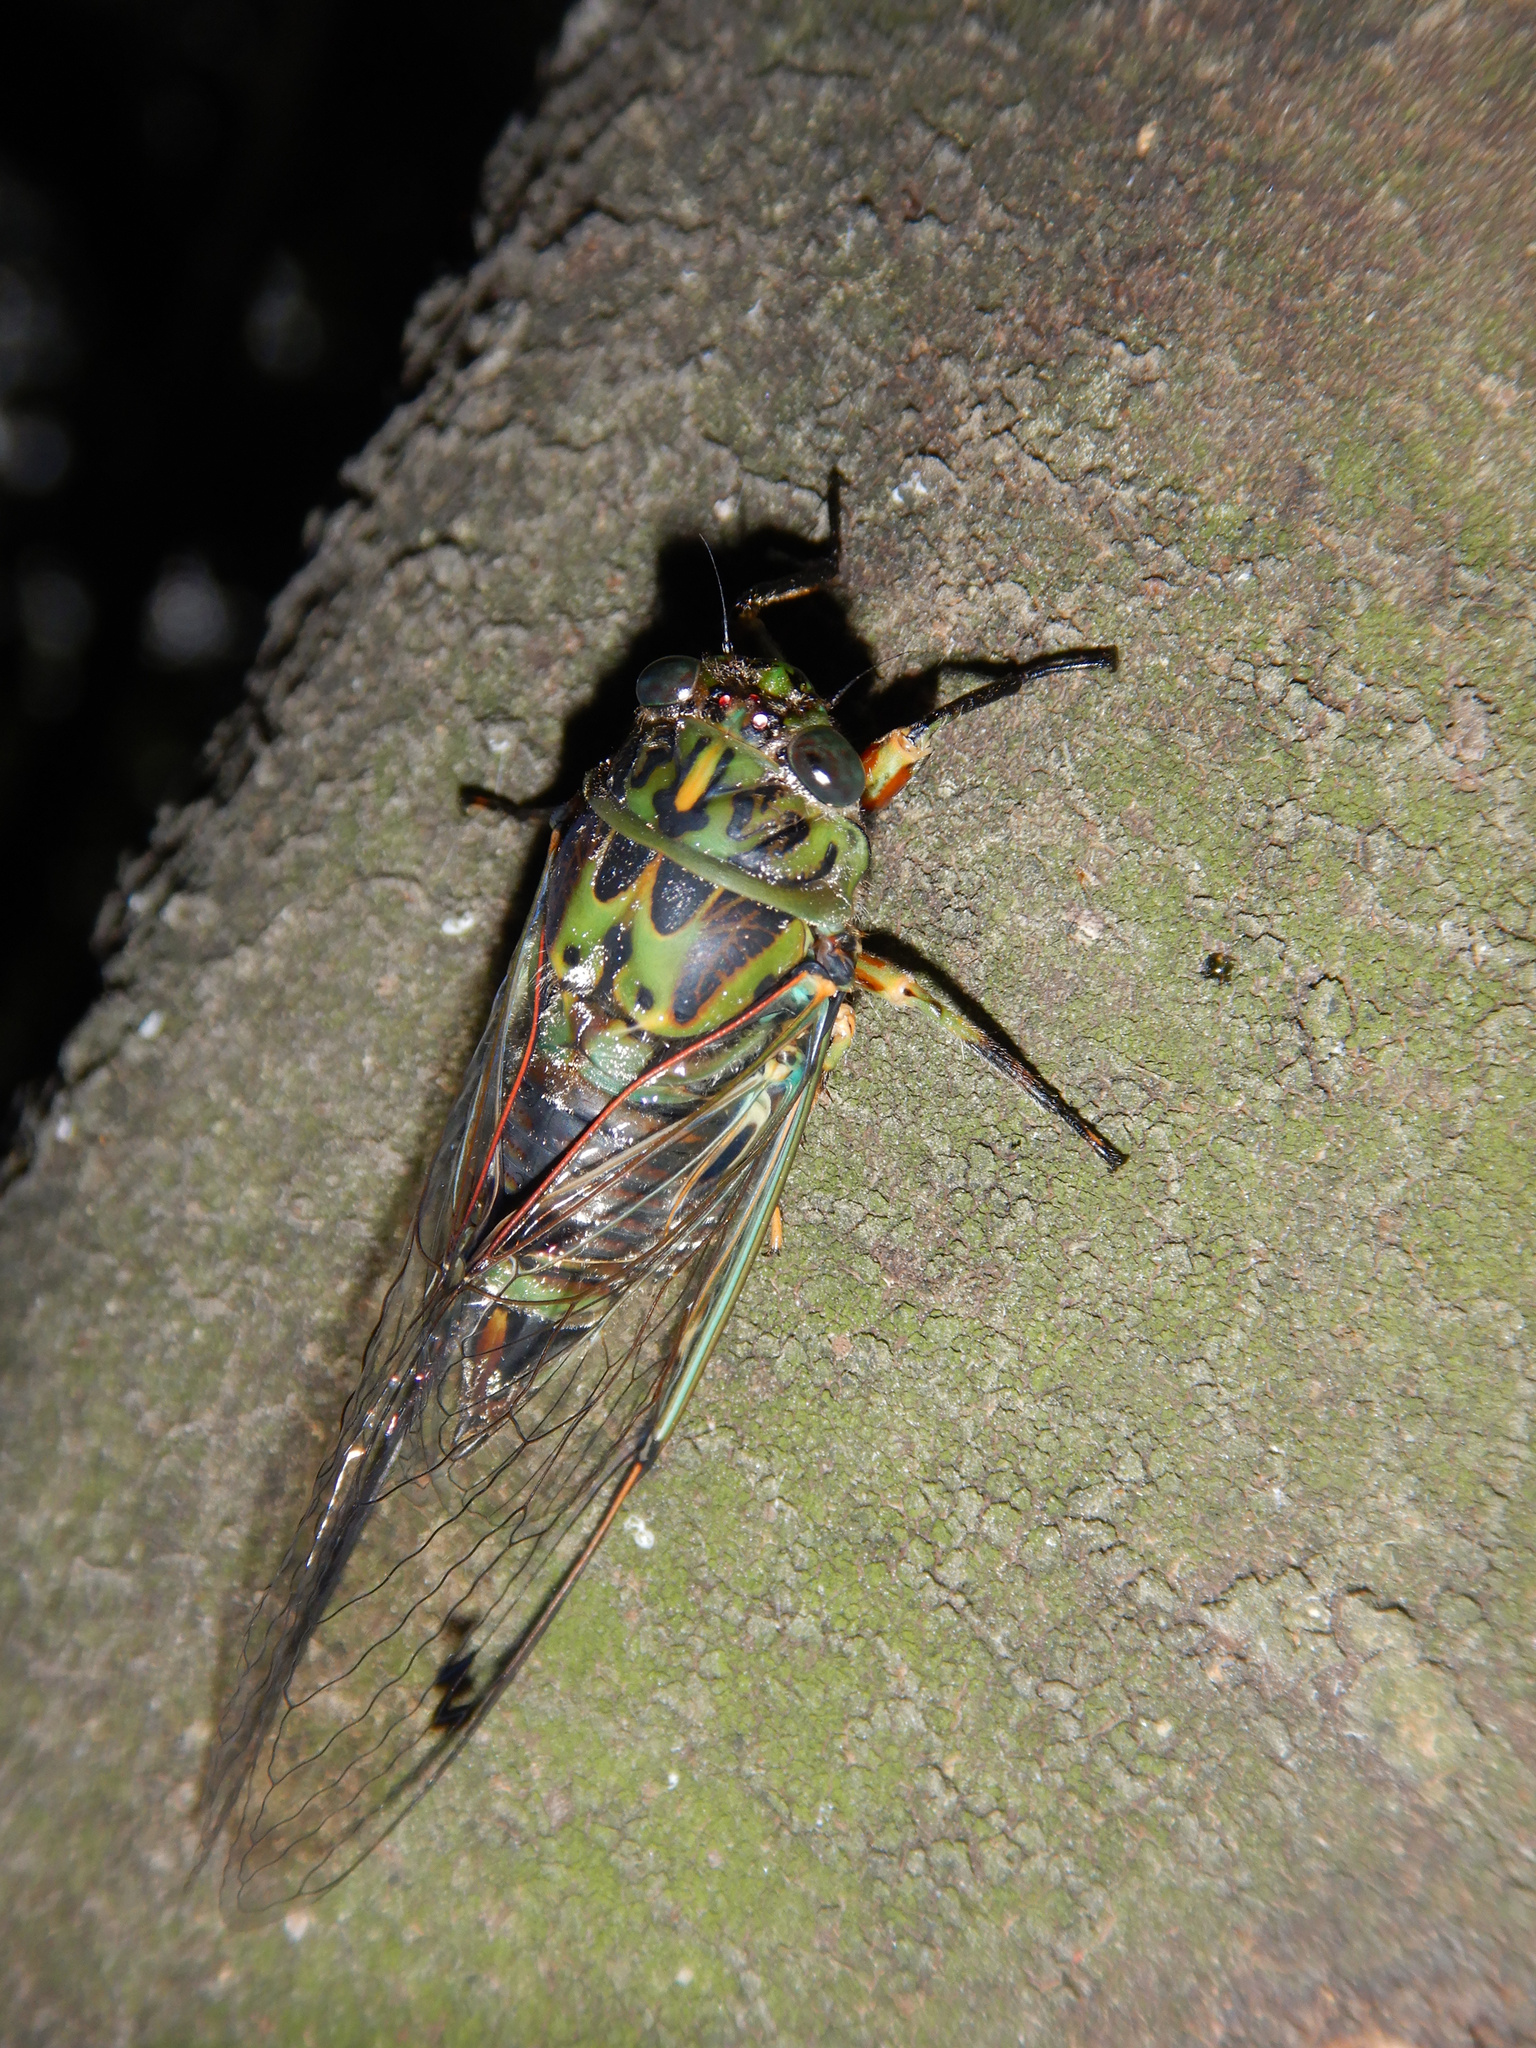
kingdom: Animalia
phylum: Arthropoda
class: Insecta
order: Hemiptera
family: Cicadidae
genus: Amphipsalta
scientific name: Amphipsalta zelandica
